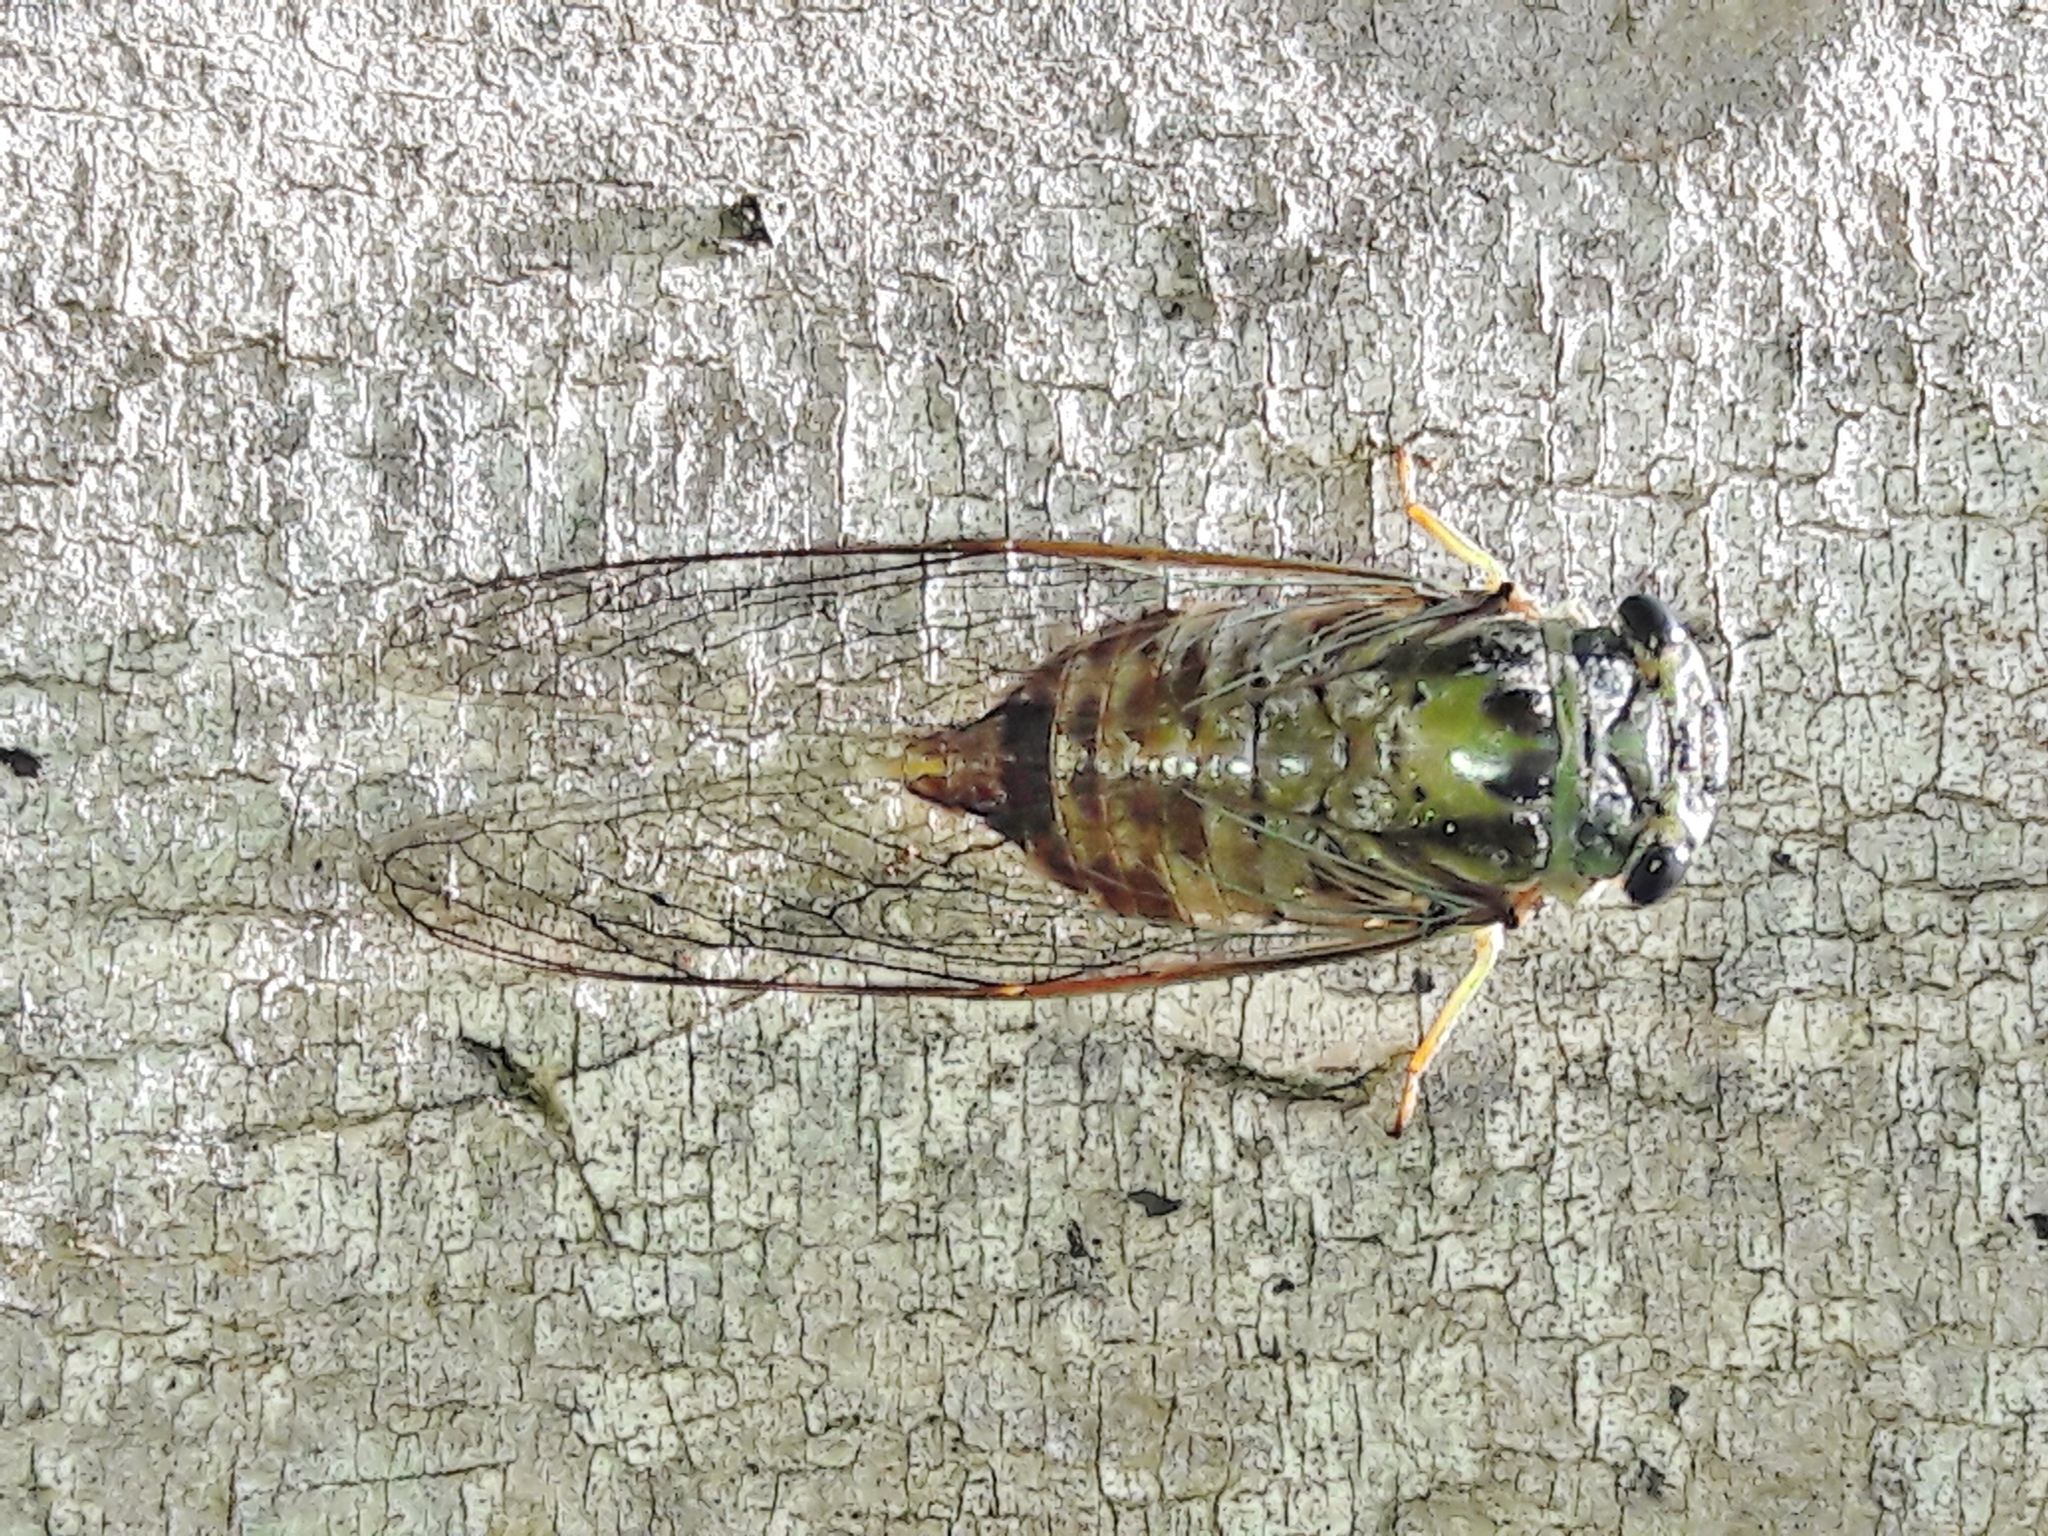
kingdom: Animalia
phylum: Arthropoda
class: Insecta
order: Hemiptera
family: Cicadidae
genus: Dorisiana
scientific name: Dorisiana noriegai
